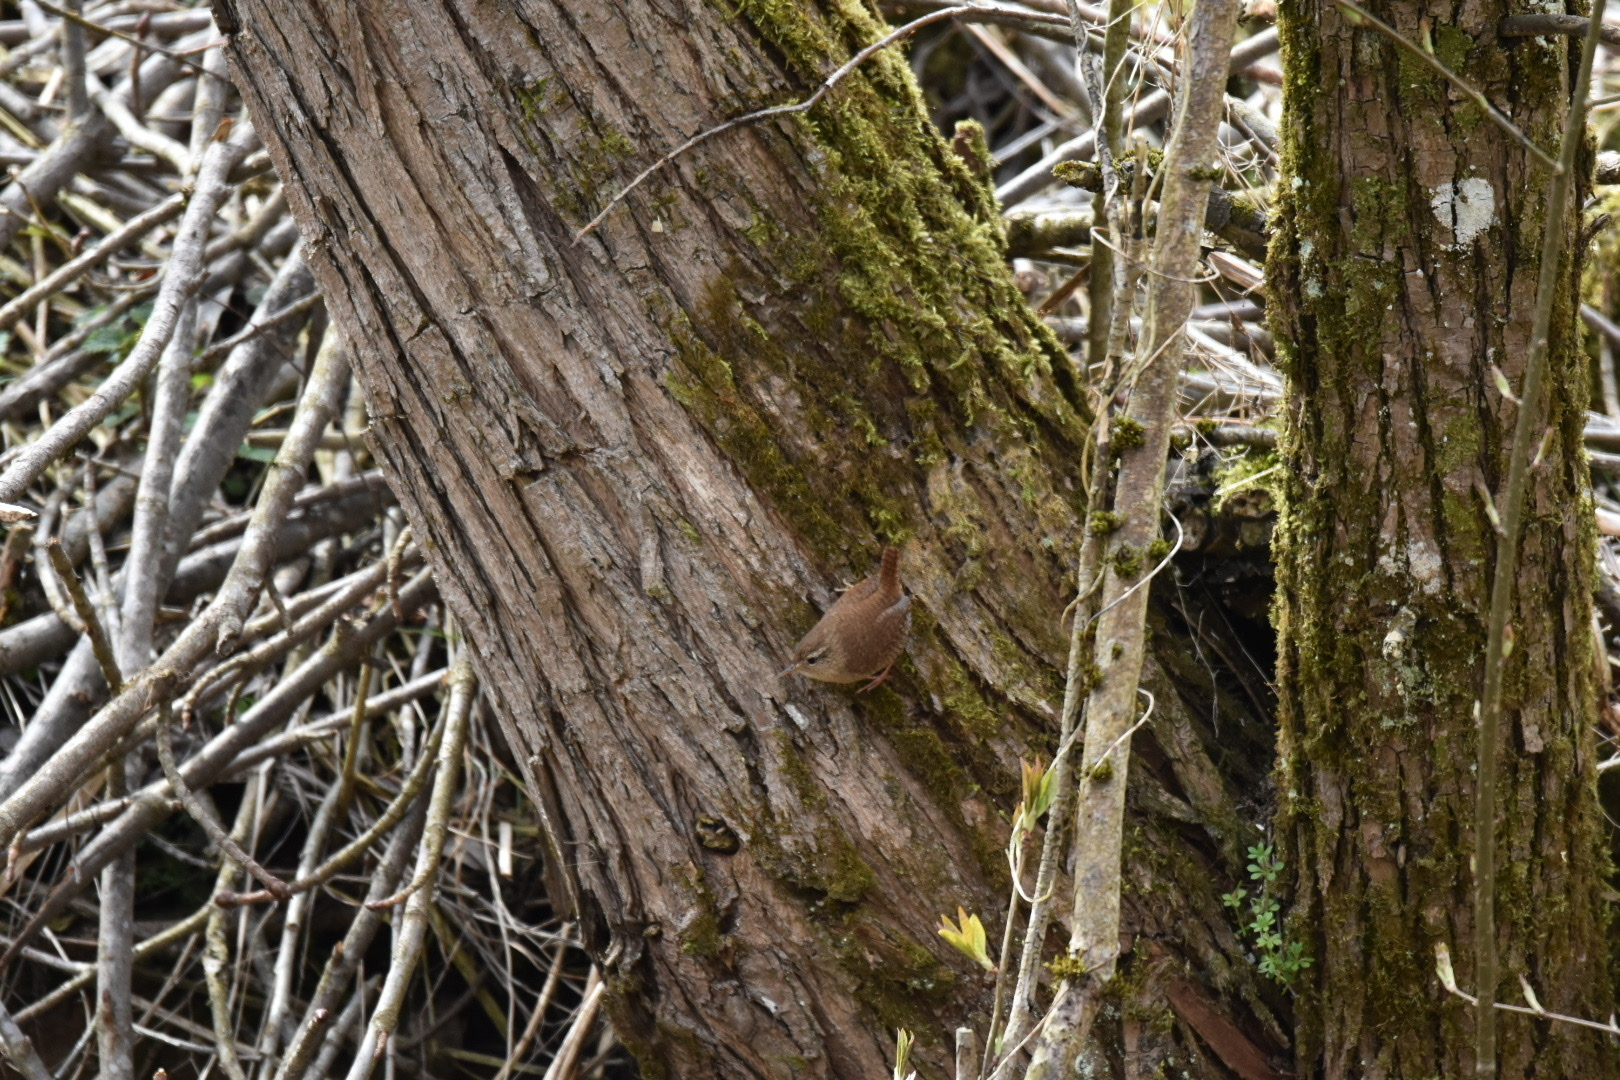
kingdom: Animalia
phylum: Chordata
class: Aves
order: Passeriformes
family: Troglodytidae
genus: Troglodytes
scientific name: Troglodytes troglodytes
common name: Eurasian wren
